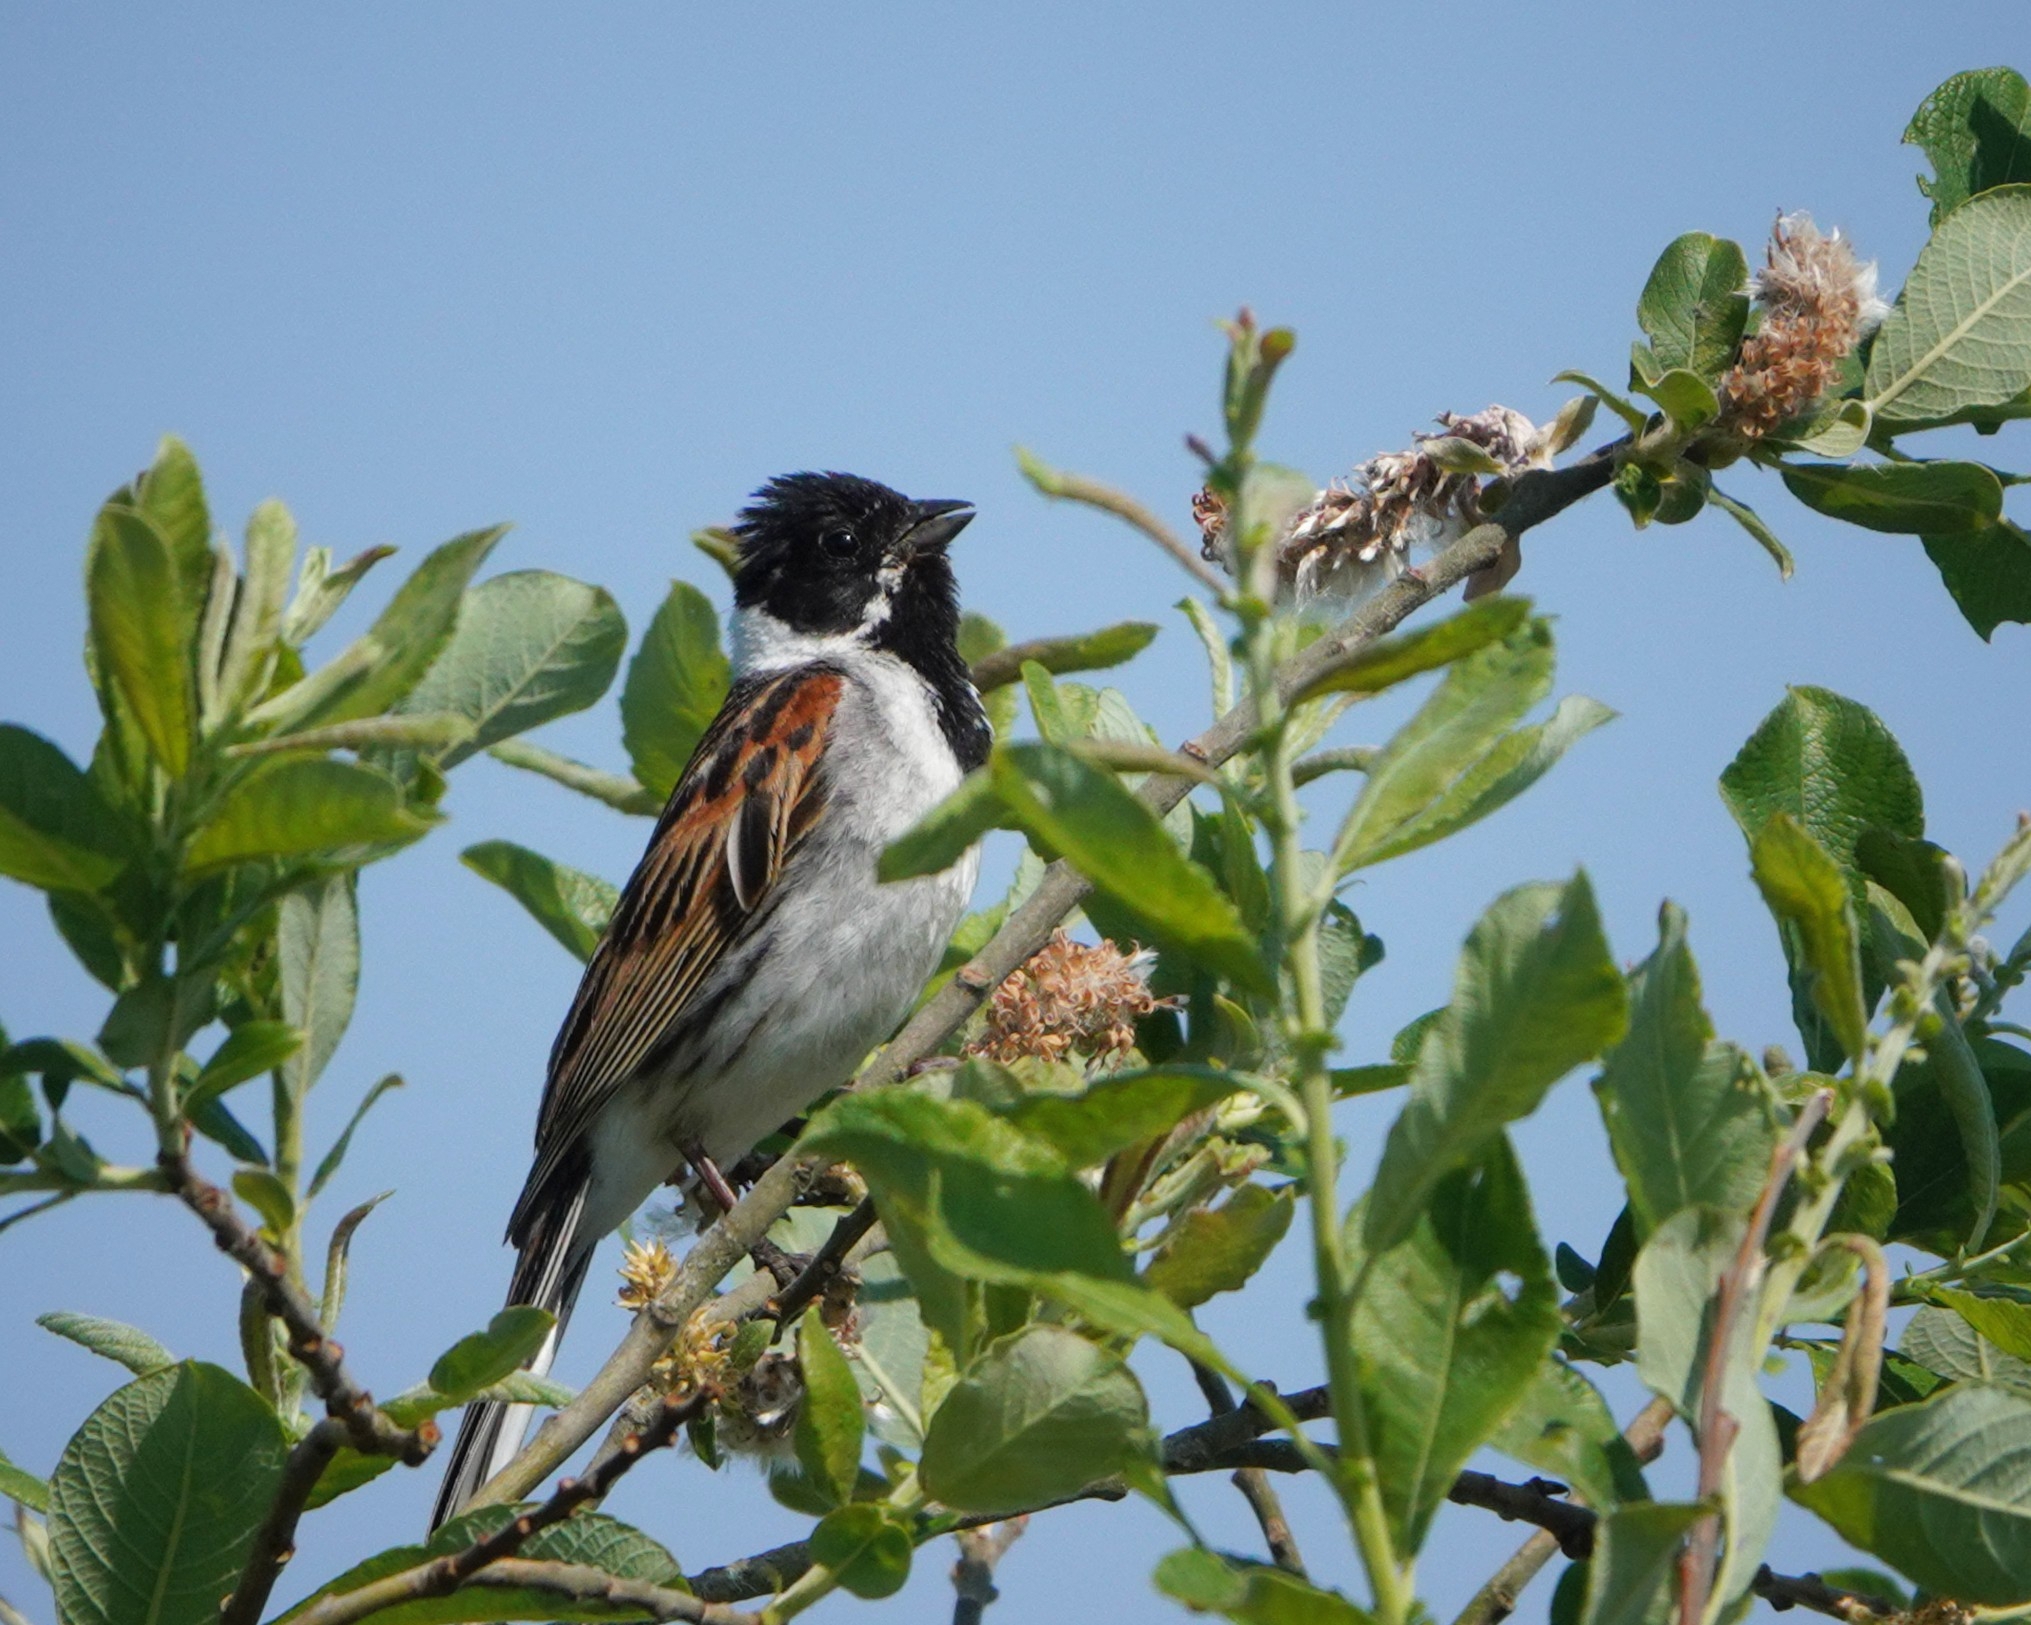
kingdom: Animalia
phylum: Chordata
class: Aves
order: Passeriformes
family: Emberizidae
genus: Emberiza
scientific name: Emberiza schoeniclus
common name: Reed bunting
